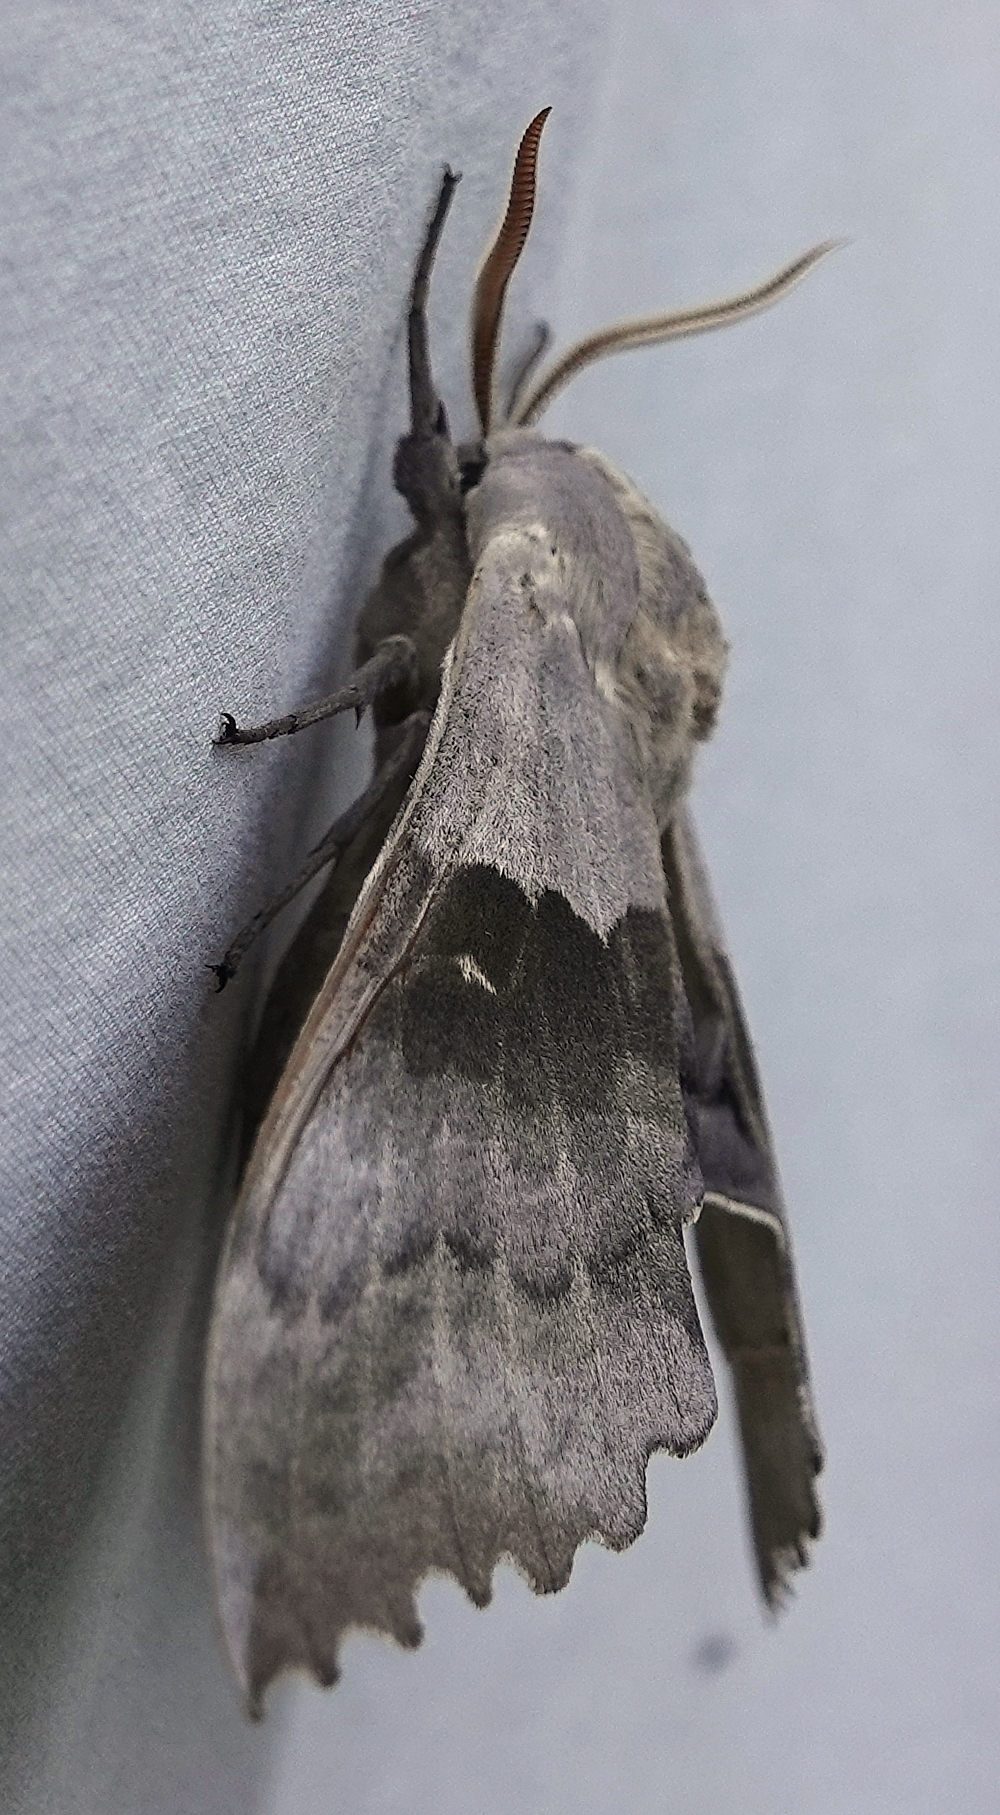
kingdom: Animalia
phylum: Arthropoda
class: Insecta
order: Lepidoptera
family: Sphingidae
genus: Pachysphinx
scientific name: Pachysphinx modesta
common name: Big poplar sphinx
